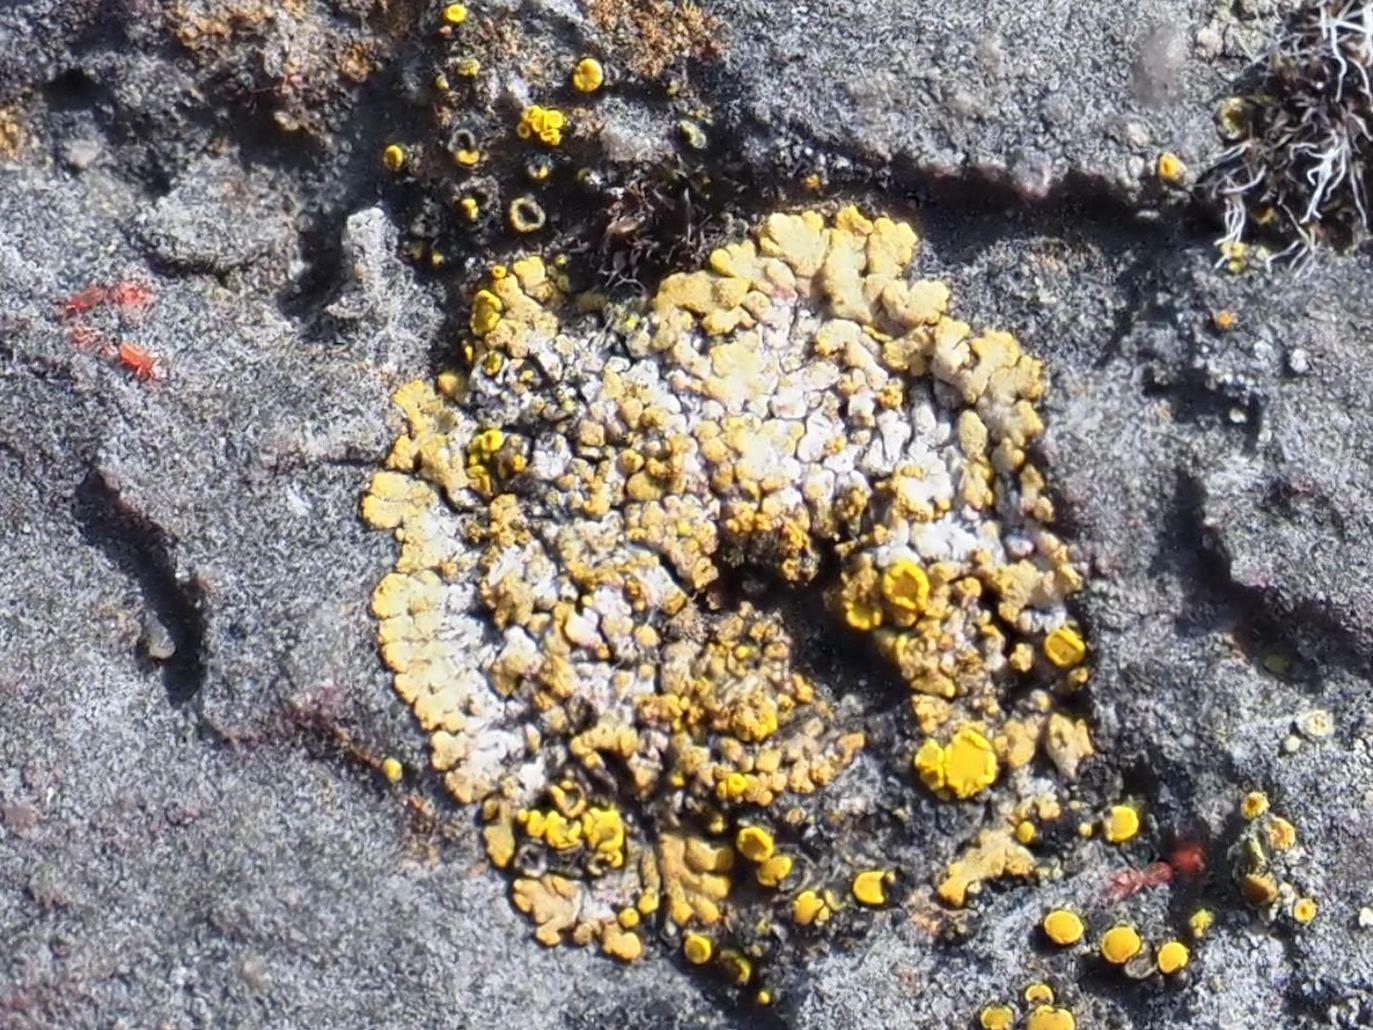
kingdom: Fungi
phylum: Ascomycota
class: Lecanoromycetes
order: Teloschistales
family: Teloschistaceae
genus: Calogaya
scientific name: Calogaya decipiens
